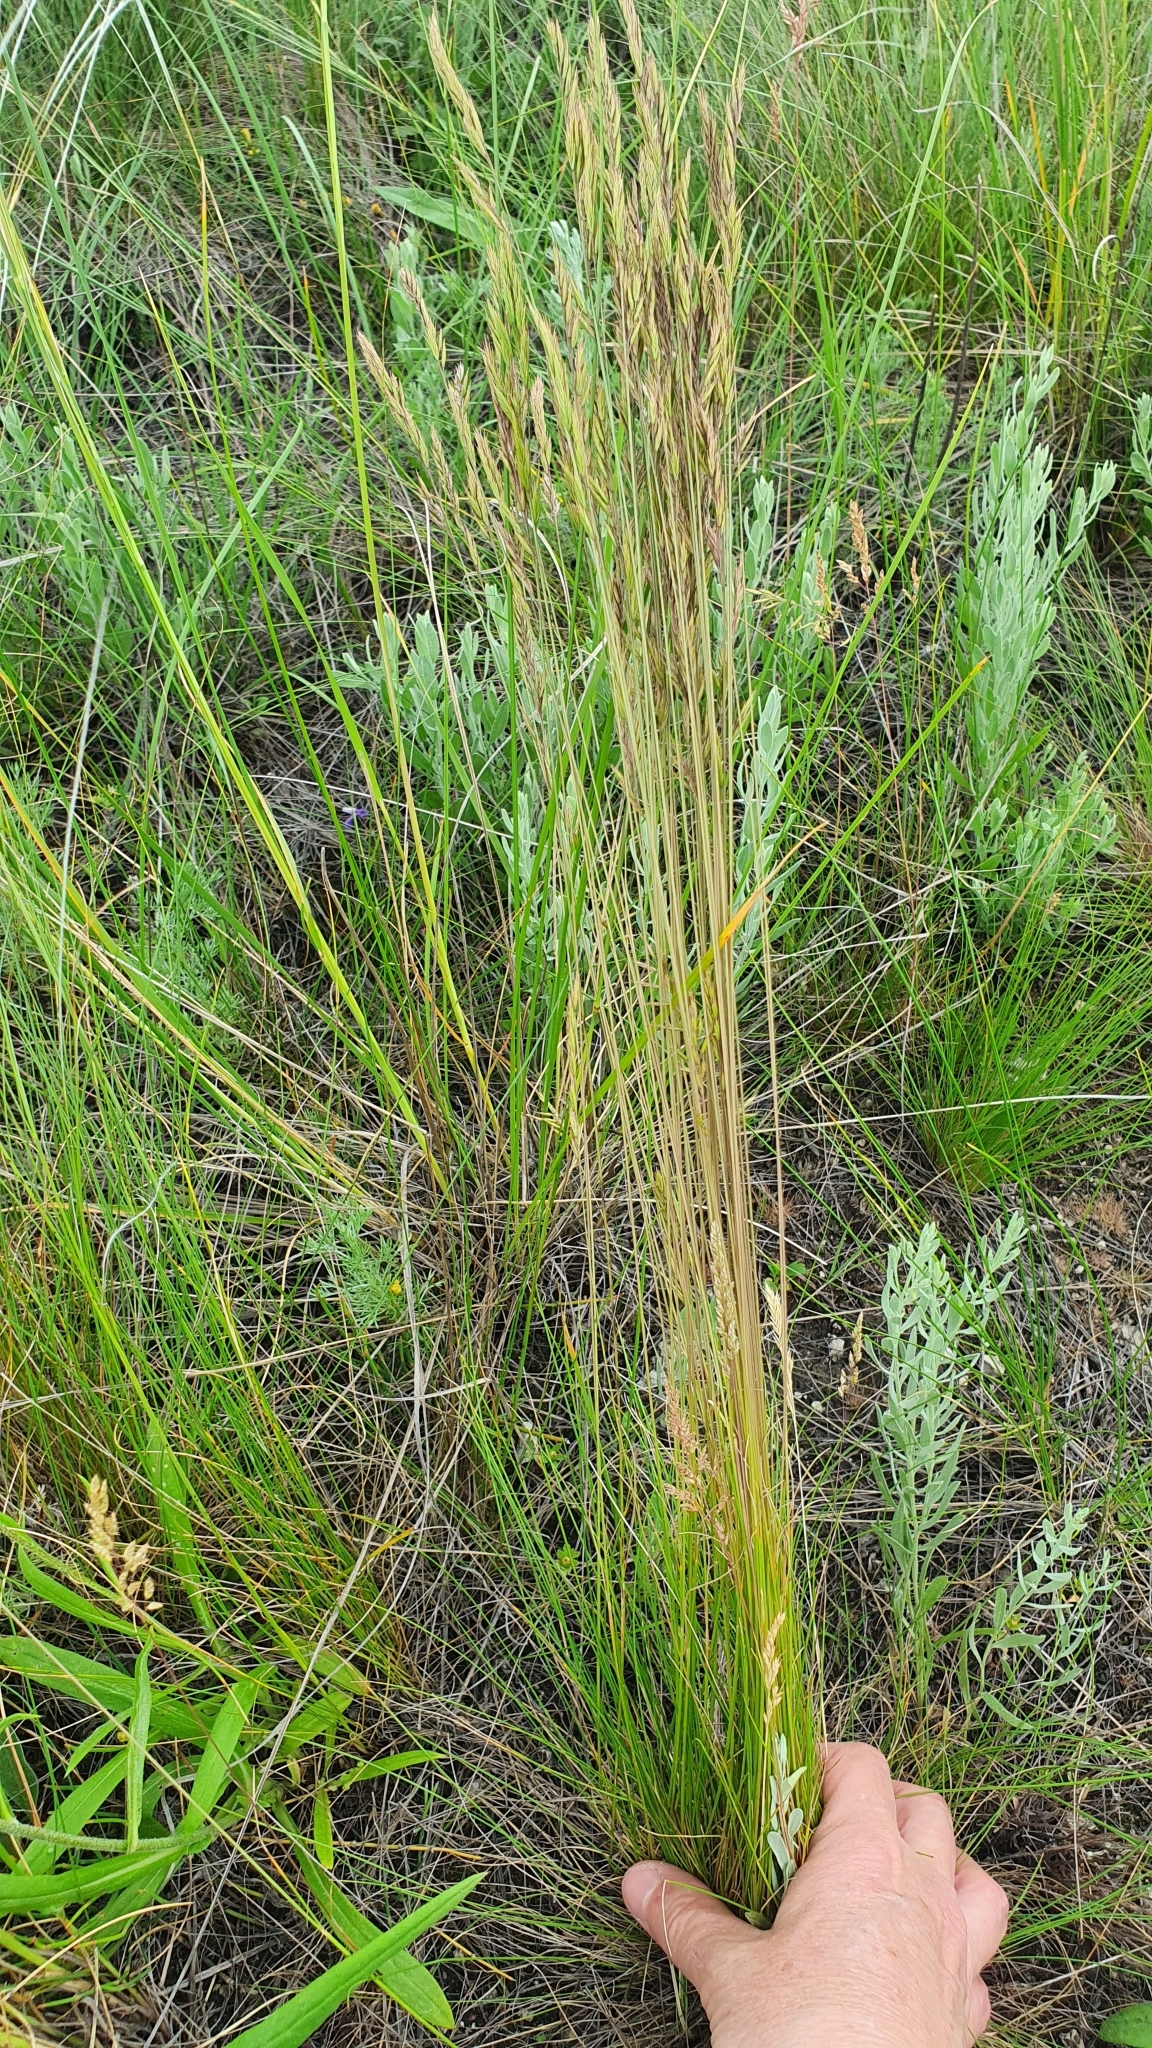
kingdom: Plantae
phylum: Tracheophyta
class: Liliopsida
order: Poales
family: Poaceae
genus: Festuca
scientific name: Festuca rupicola
